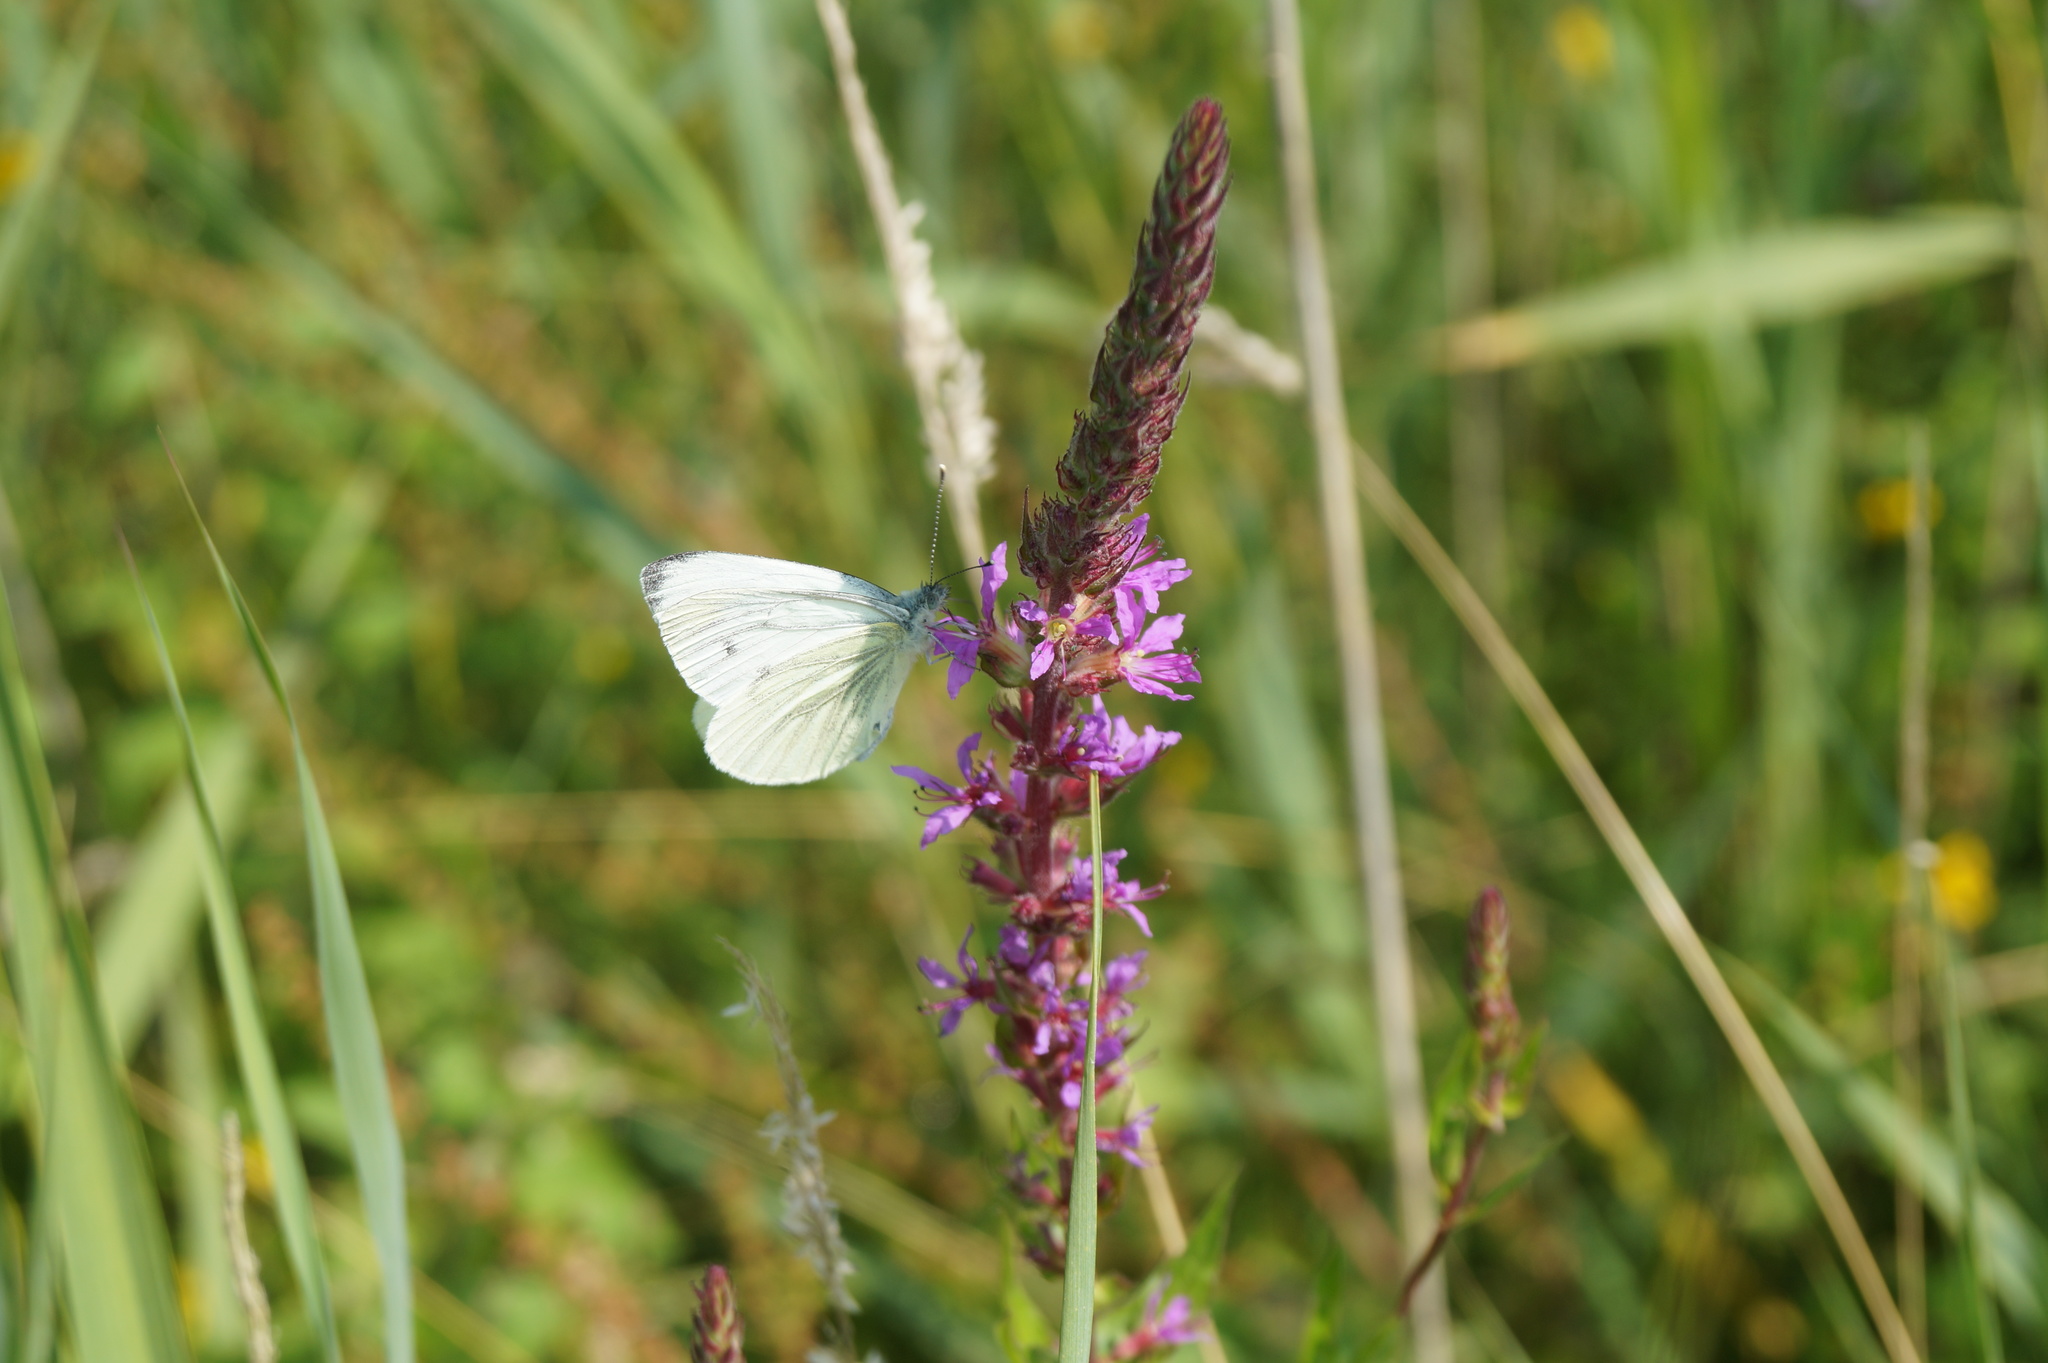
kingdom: Animalia
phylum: Arthropoda
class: Insecta
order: Lepidoptera
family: Pieridae
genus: Pieris
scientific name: Pieris napi
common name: Green-veined white
